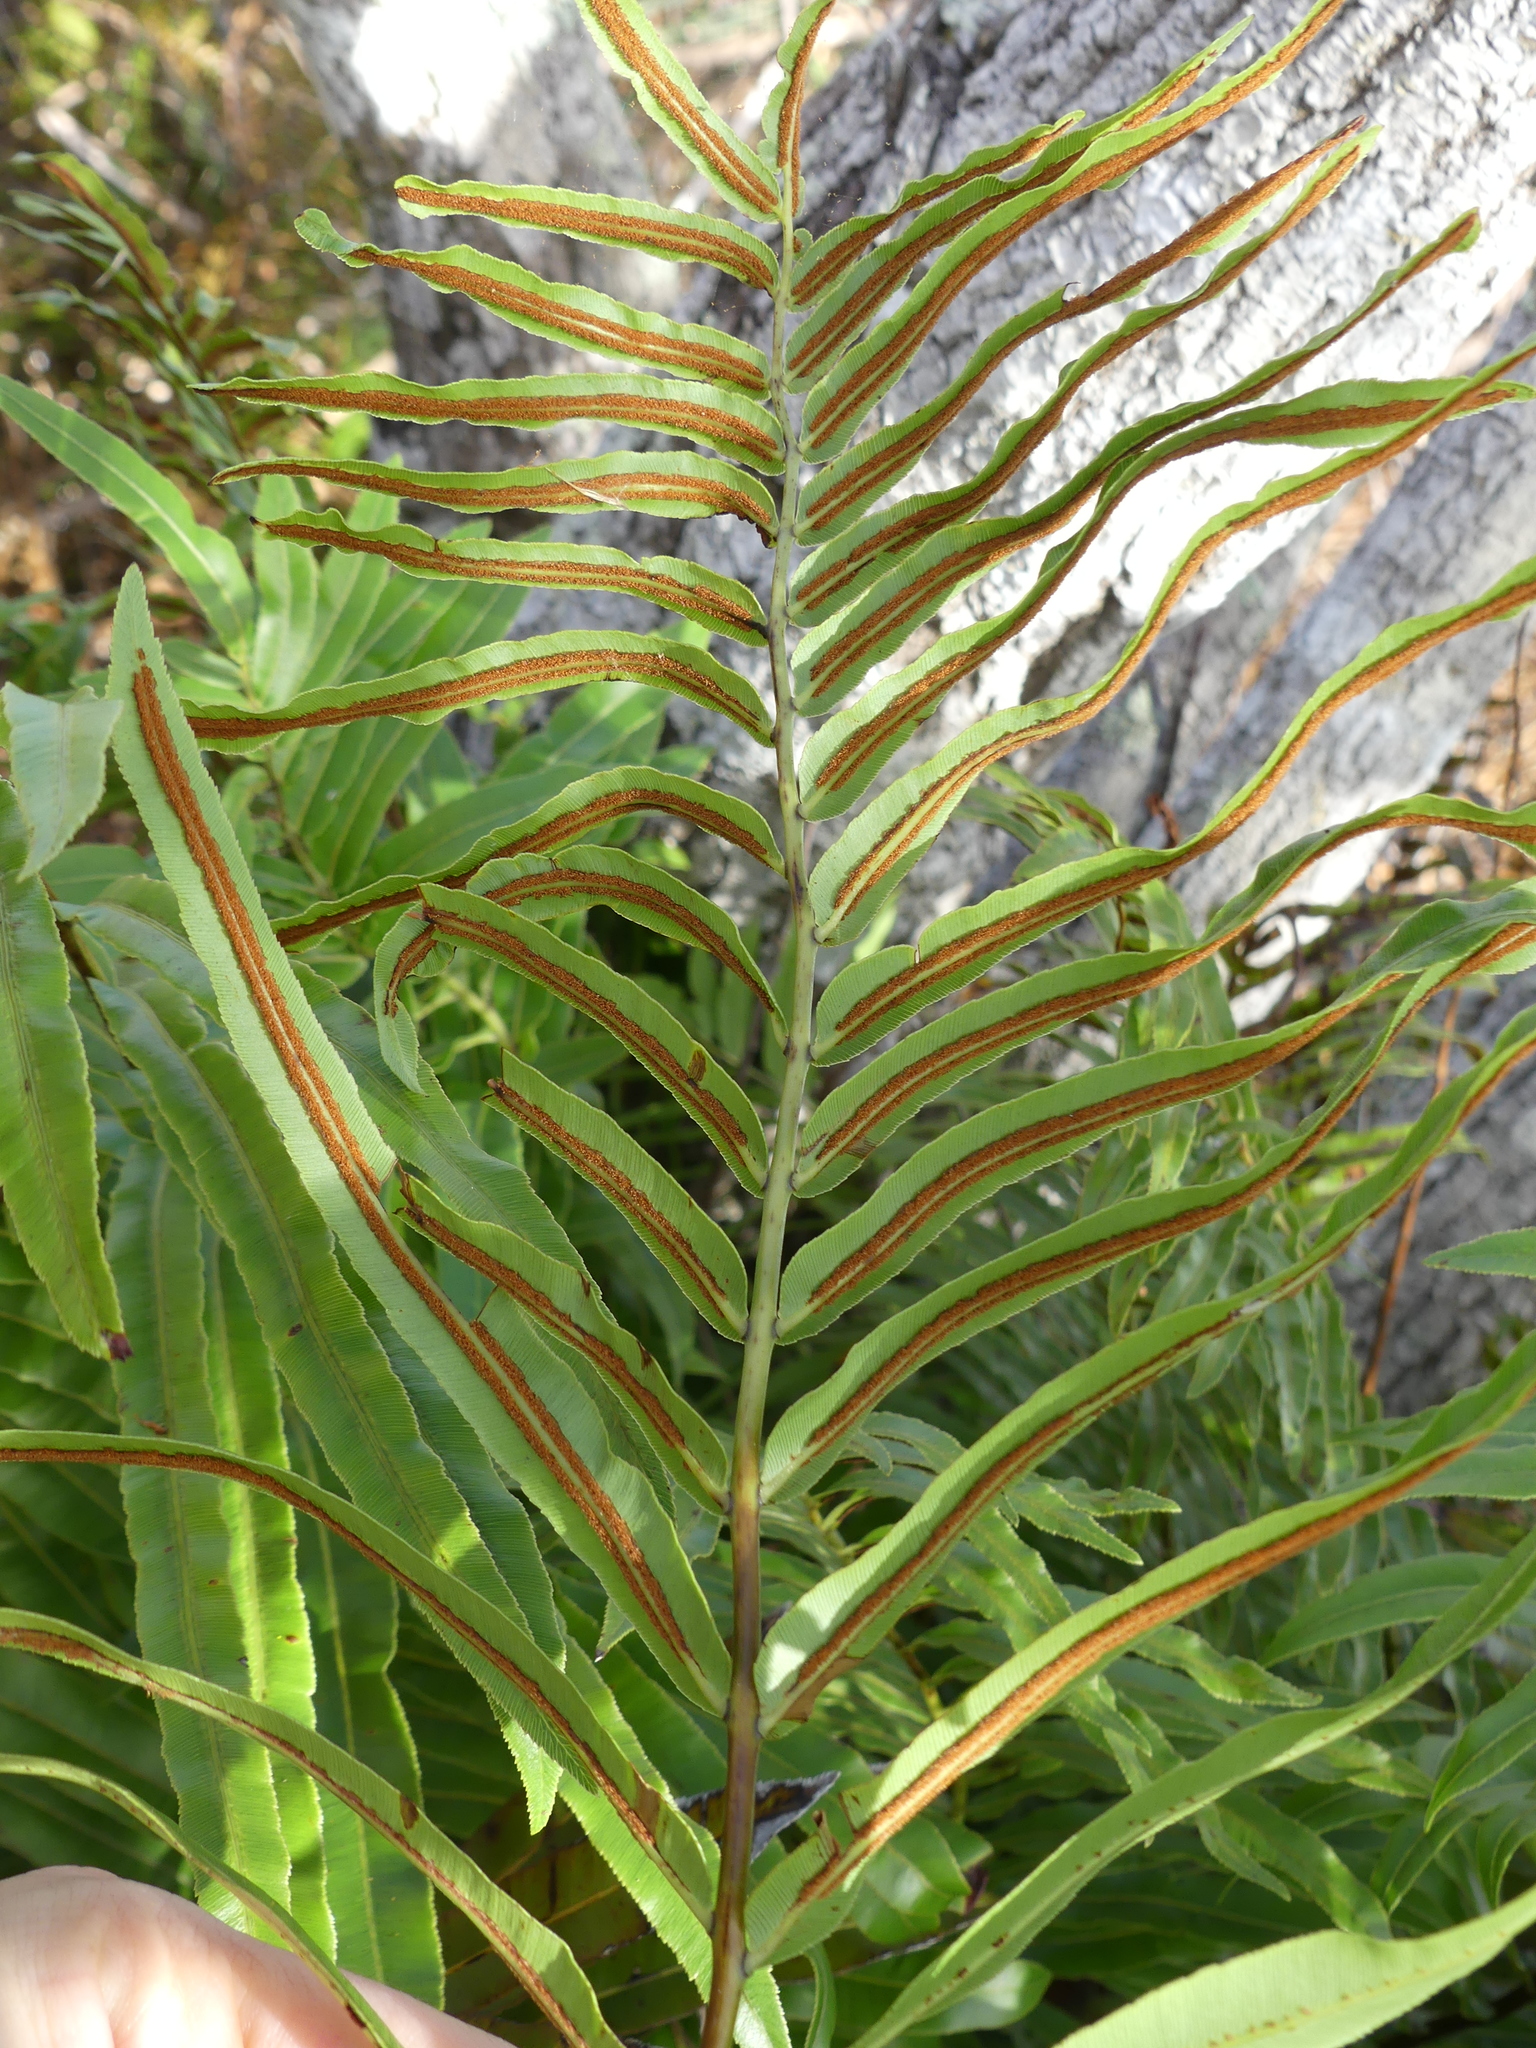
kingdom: Plantae
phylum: Tracheophyta
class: Polypodiopsida
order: Polypodiales
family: Blechnaceae
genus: Telmatoblechnum
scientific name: Telmatoblechnum serrulatum
